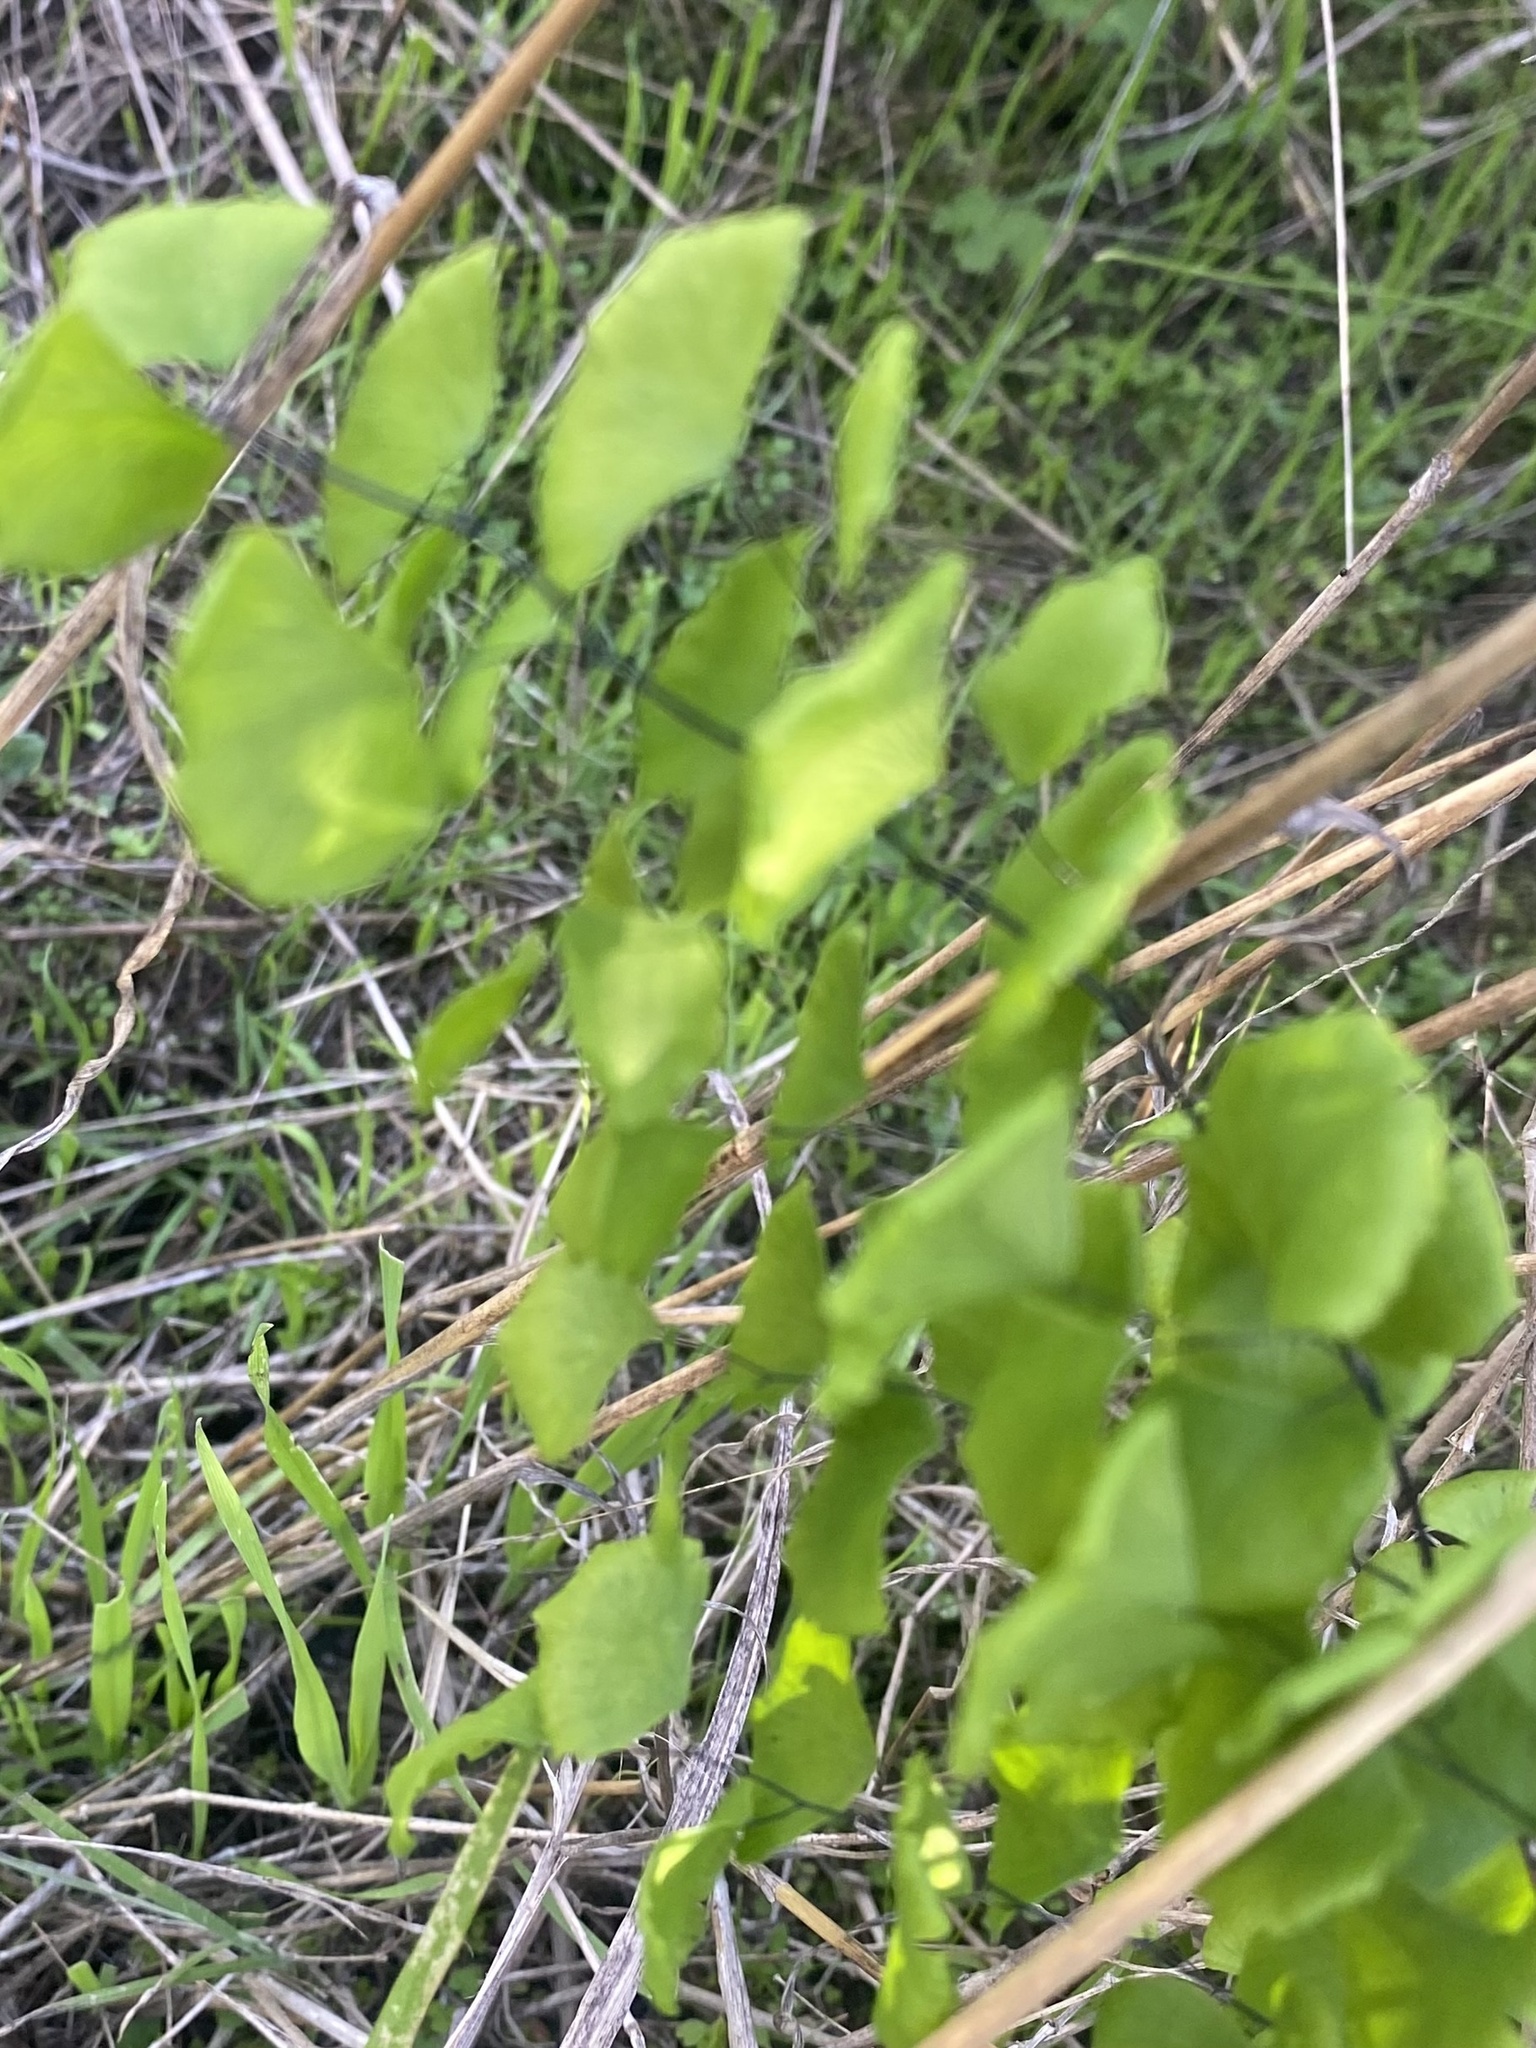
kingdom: Plantae
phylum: Tracheophyta
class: Polypodiopsida
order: Polypodiales
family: Pteridaceae
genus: Adiantum
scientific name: Adiantum jordanii
